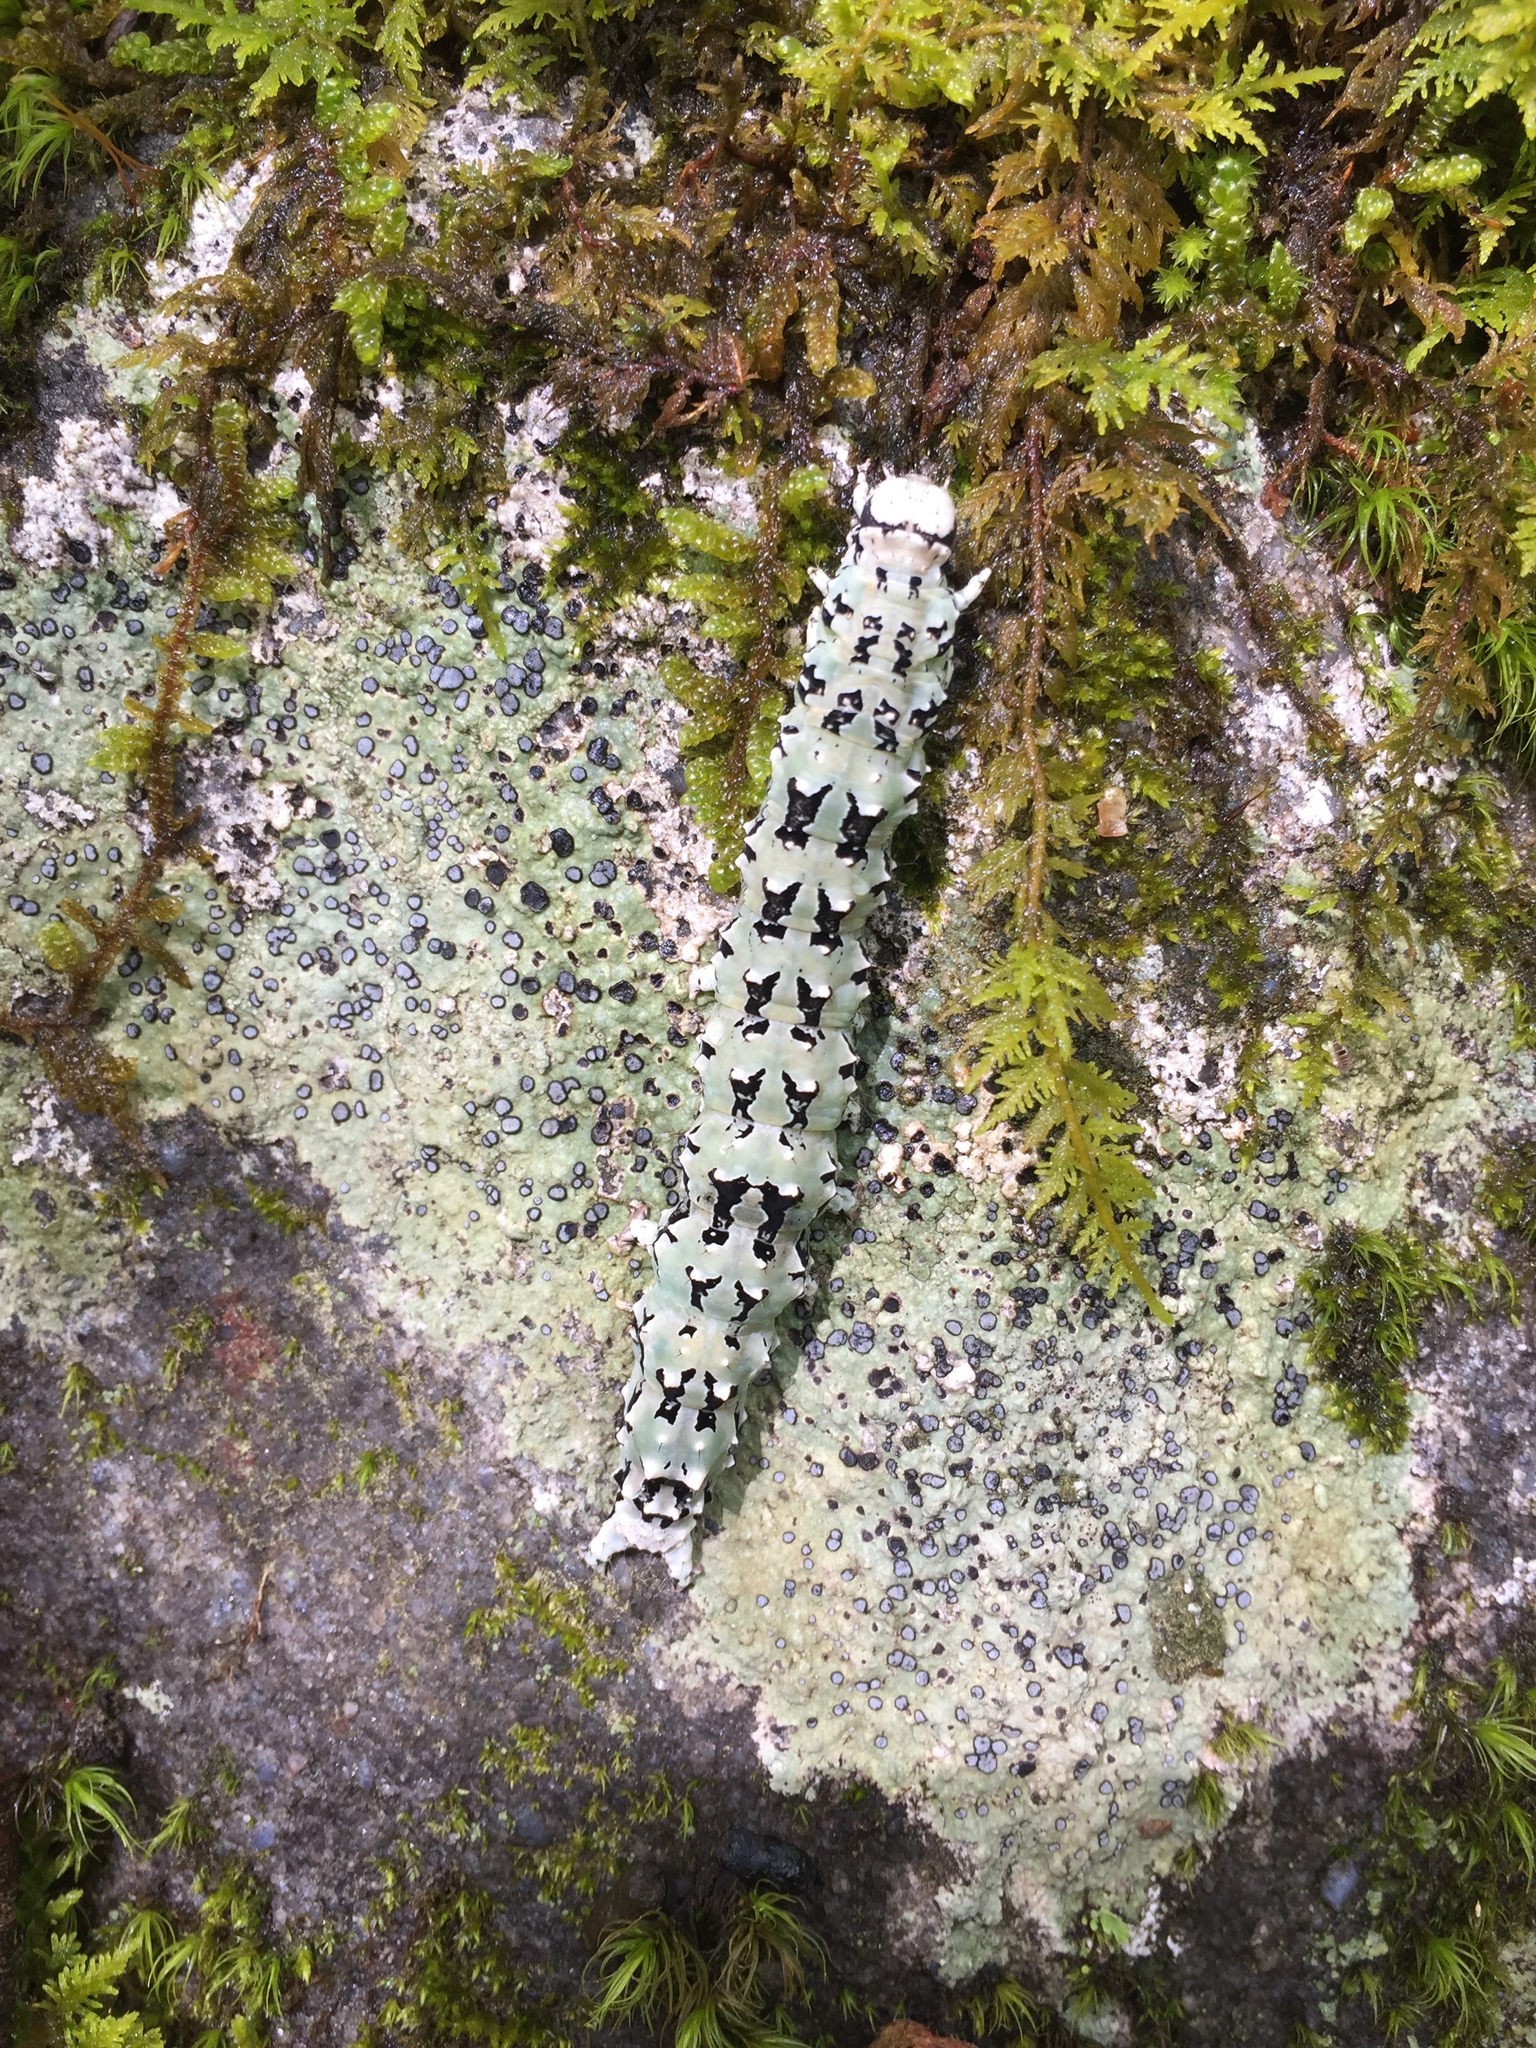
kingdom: Animalia
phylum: Arthropoda
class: Insecta
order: Lepidoptera
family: Erebidae
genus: Catocala
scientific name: Catocala ilia
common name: Ilia underwing
